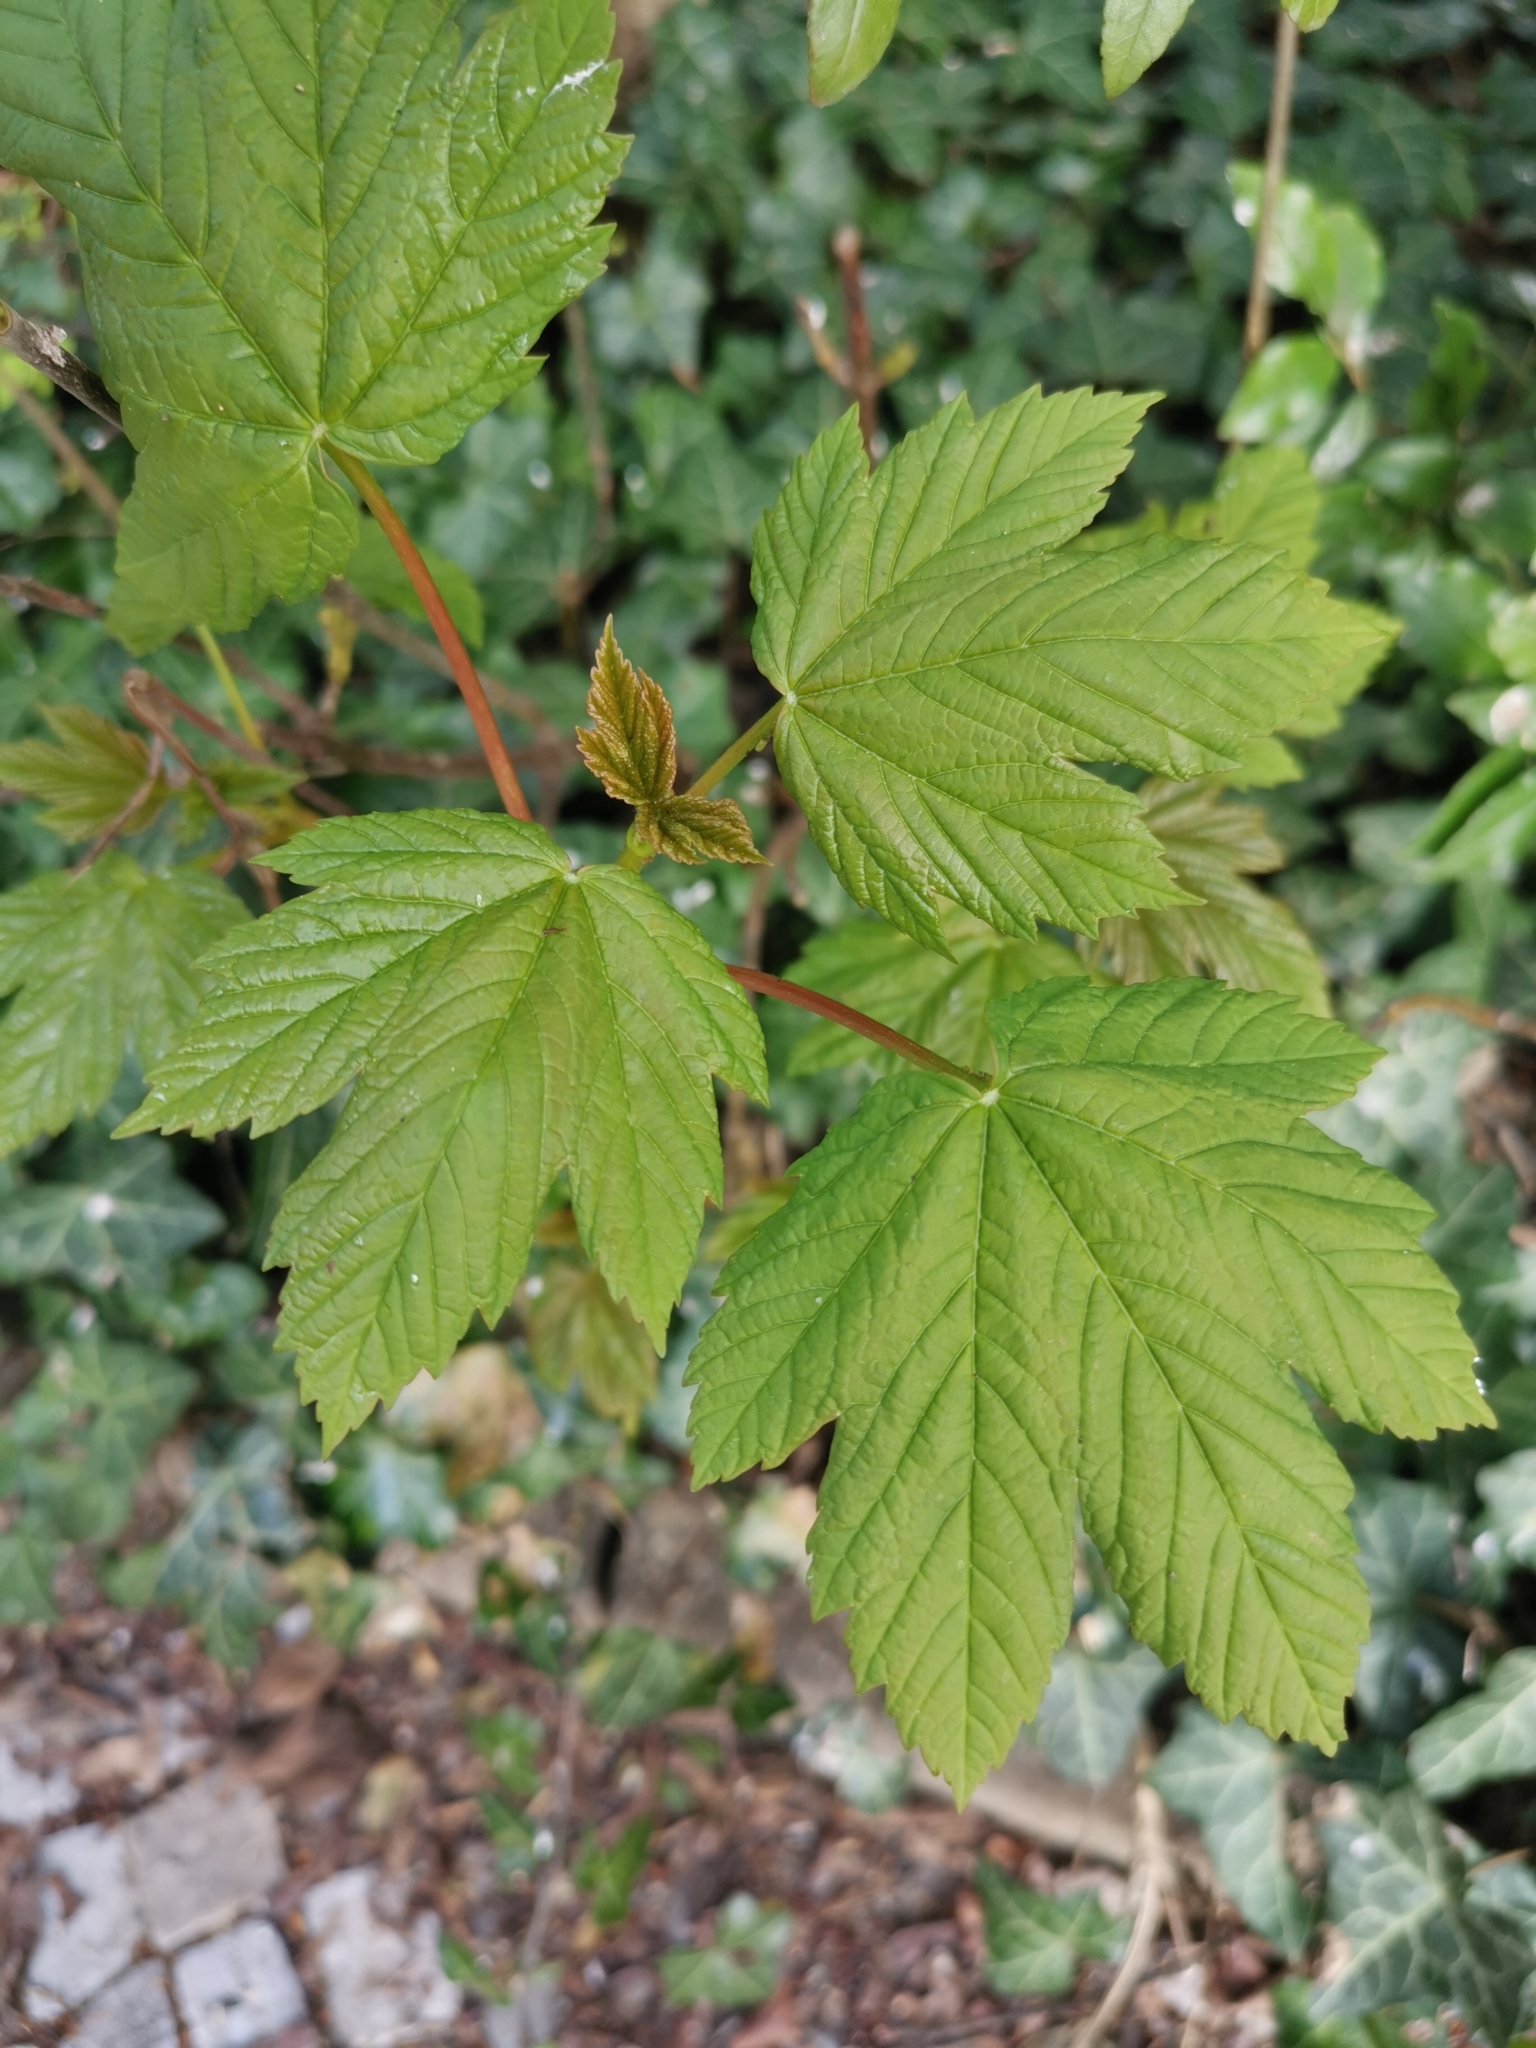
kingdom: Plantae
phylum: Tracheophyta
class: Magnoliopsida
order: Sapindales
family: Sapindaceae
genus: Acer
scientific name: Acer pseudoplatanus
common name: Sycamore
